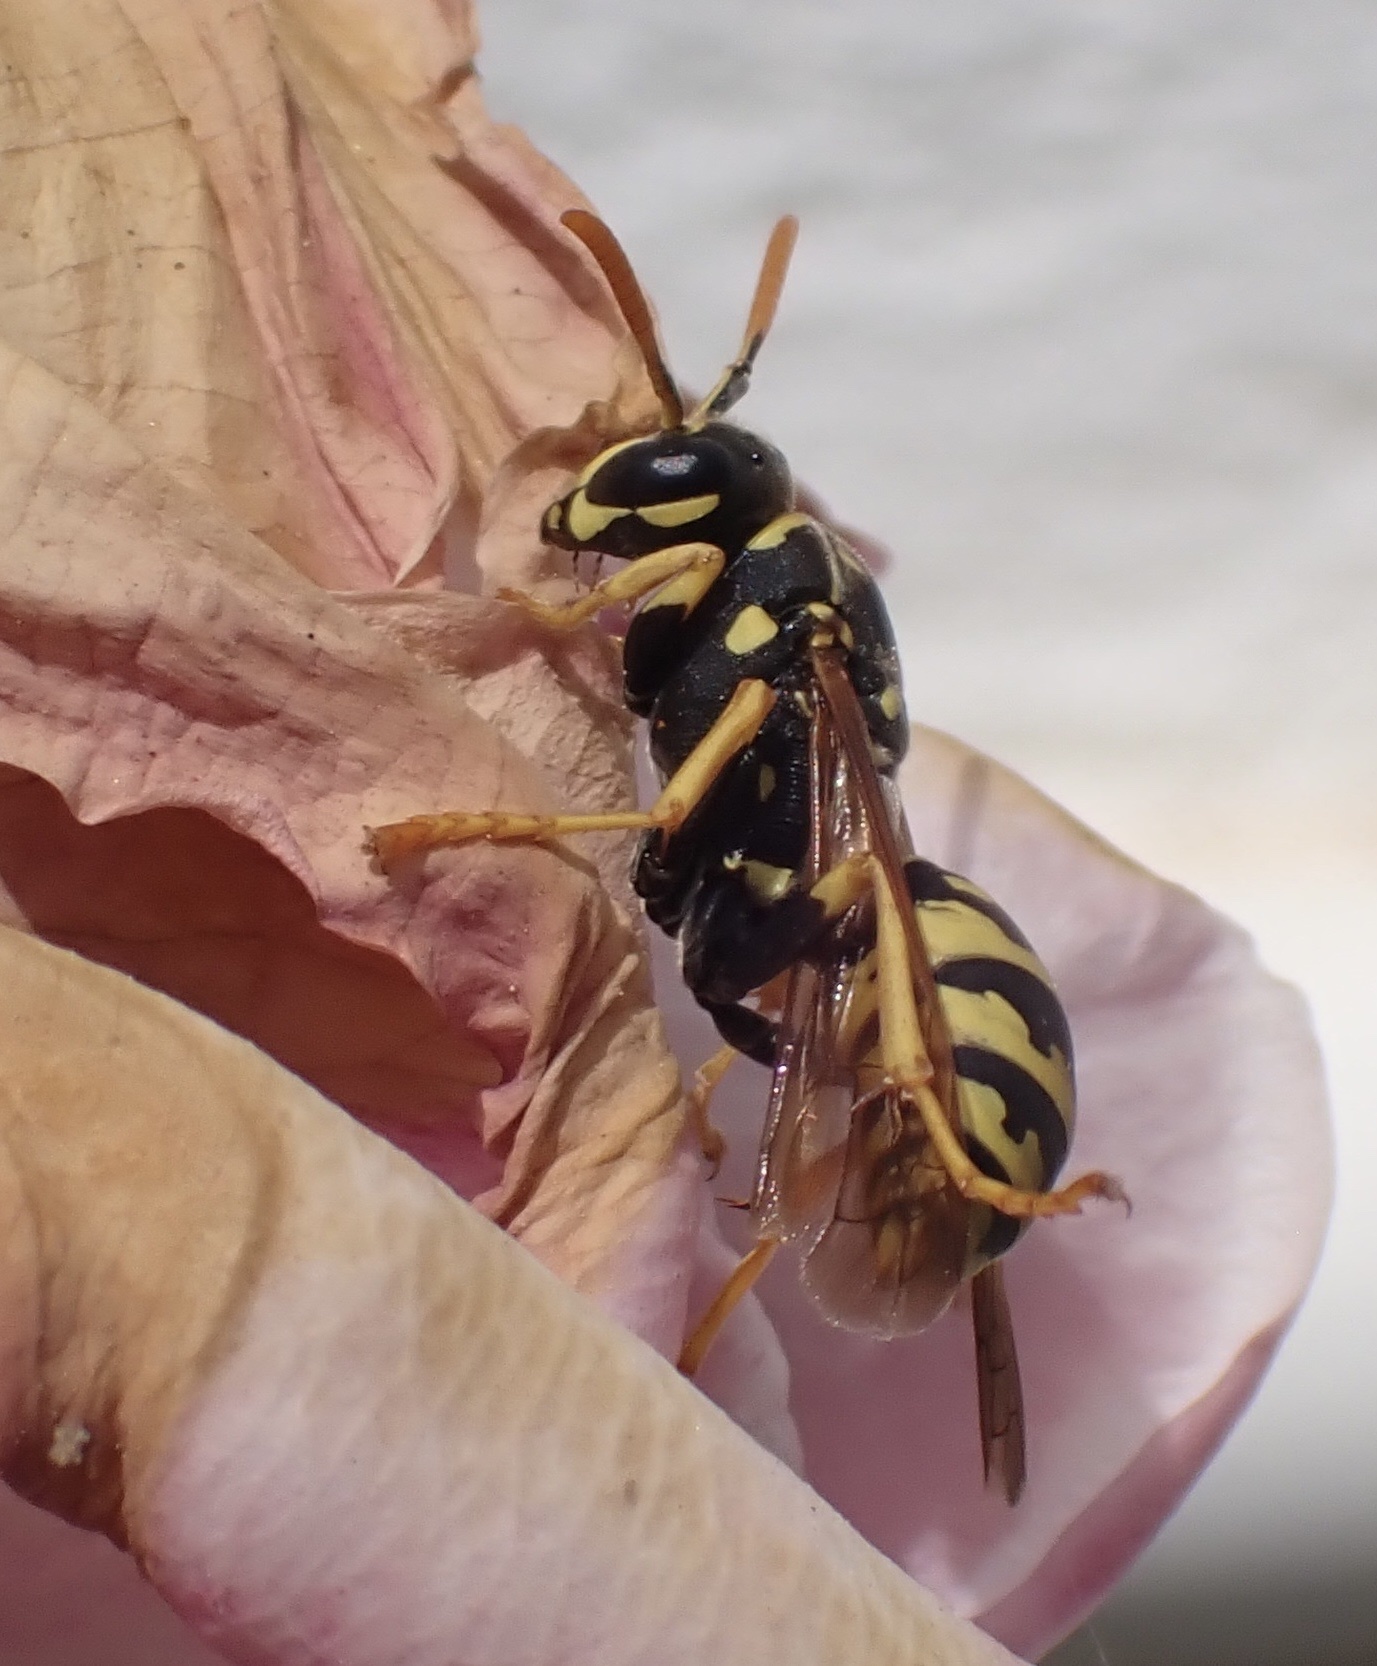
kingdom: Animalia
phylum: Arthropoda
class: Insecta
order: Hymenoptera
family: Eumenidae
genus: Polistes
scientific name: Polistes dominula
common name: Paper wasp
